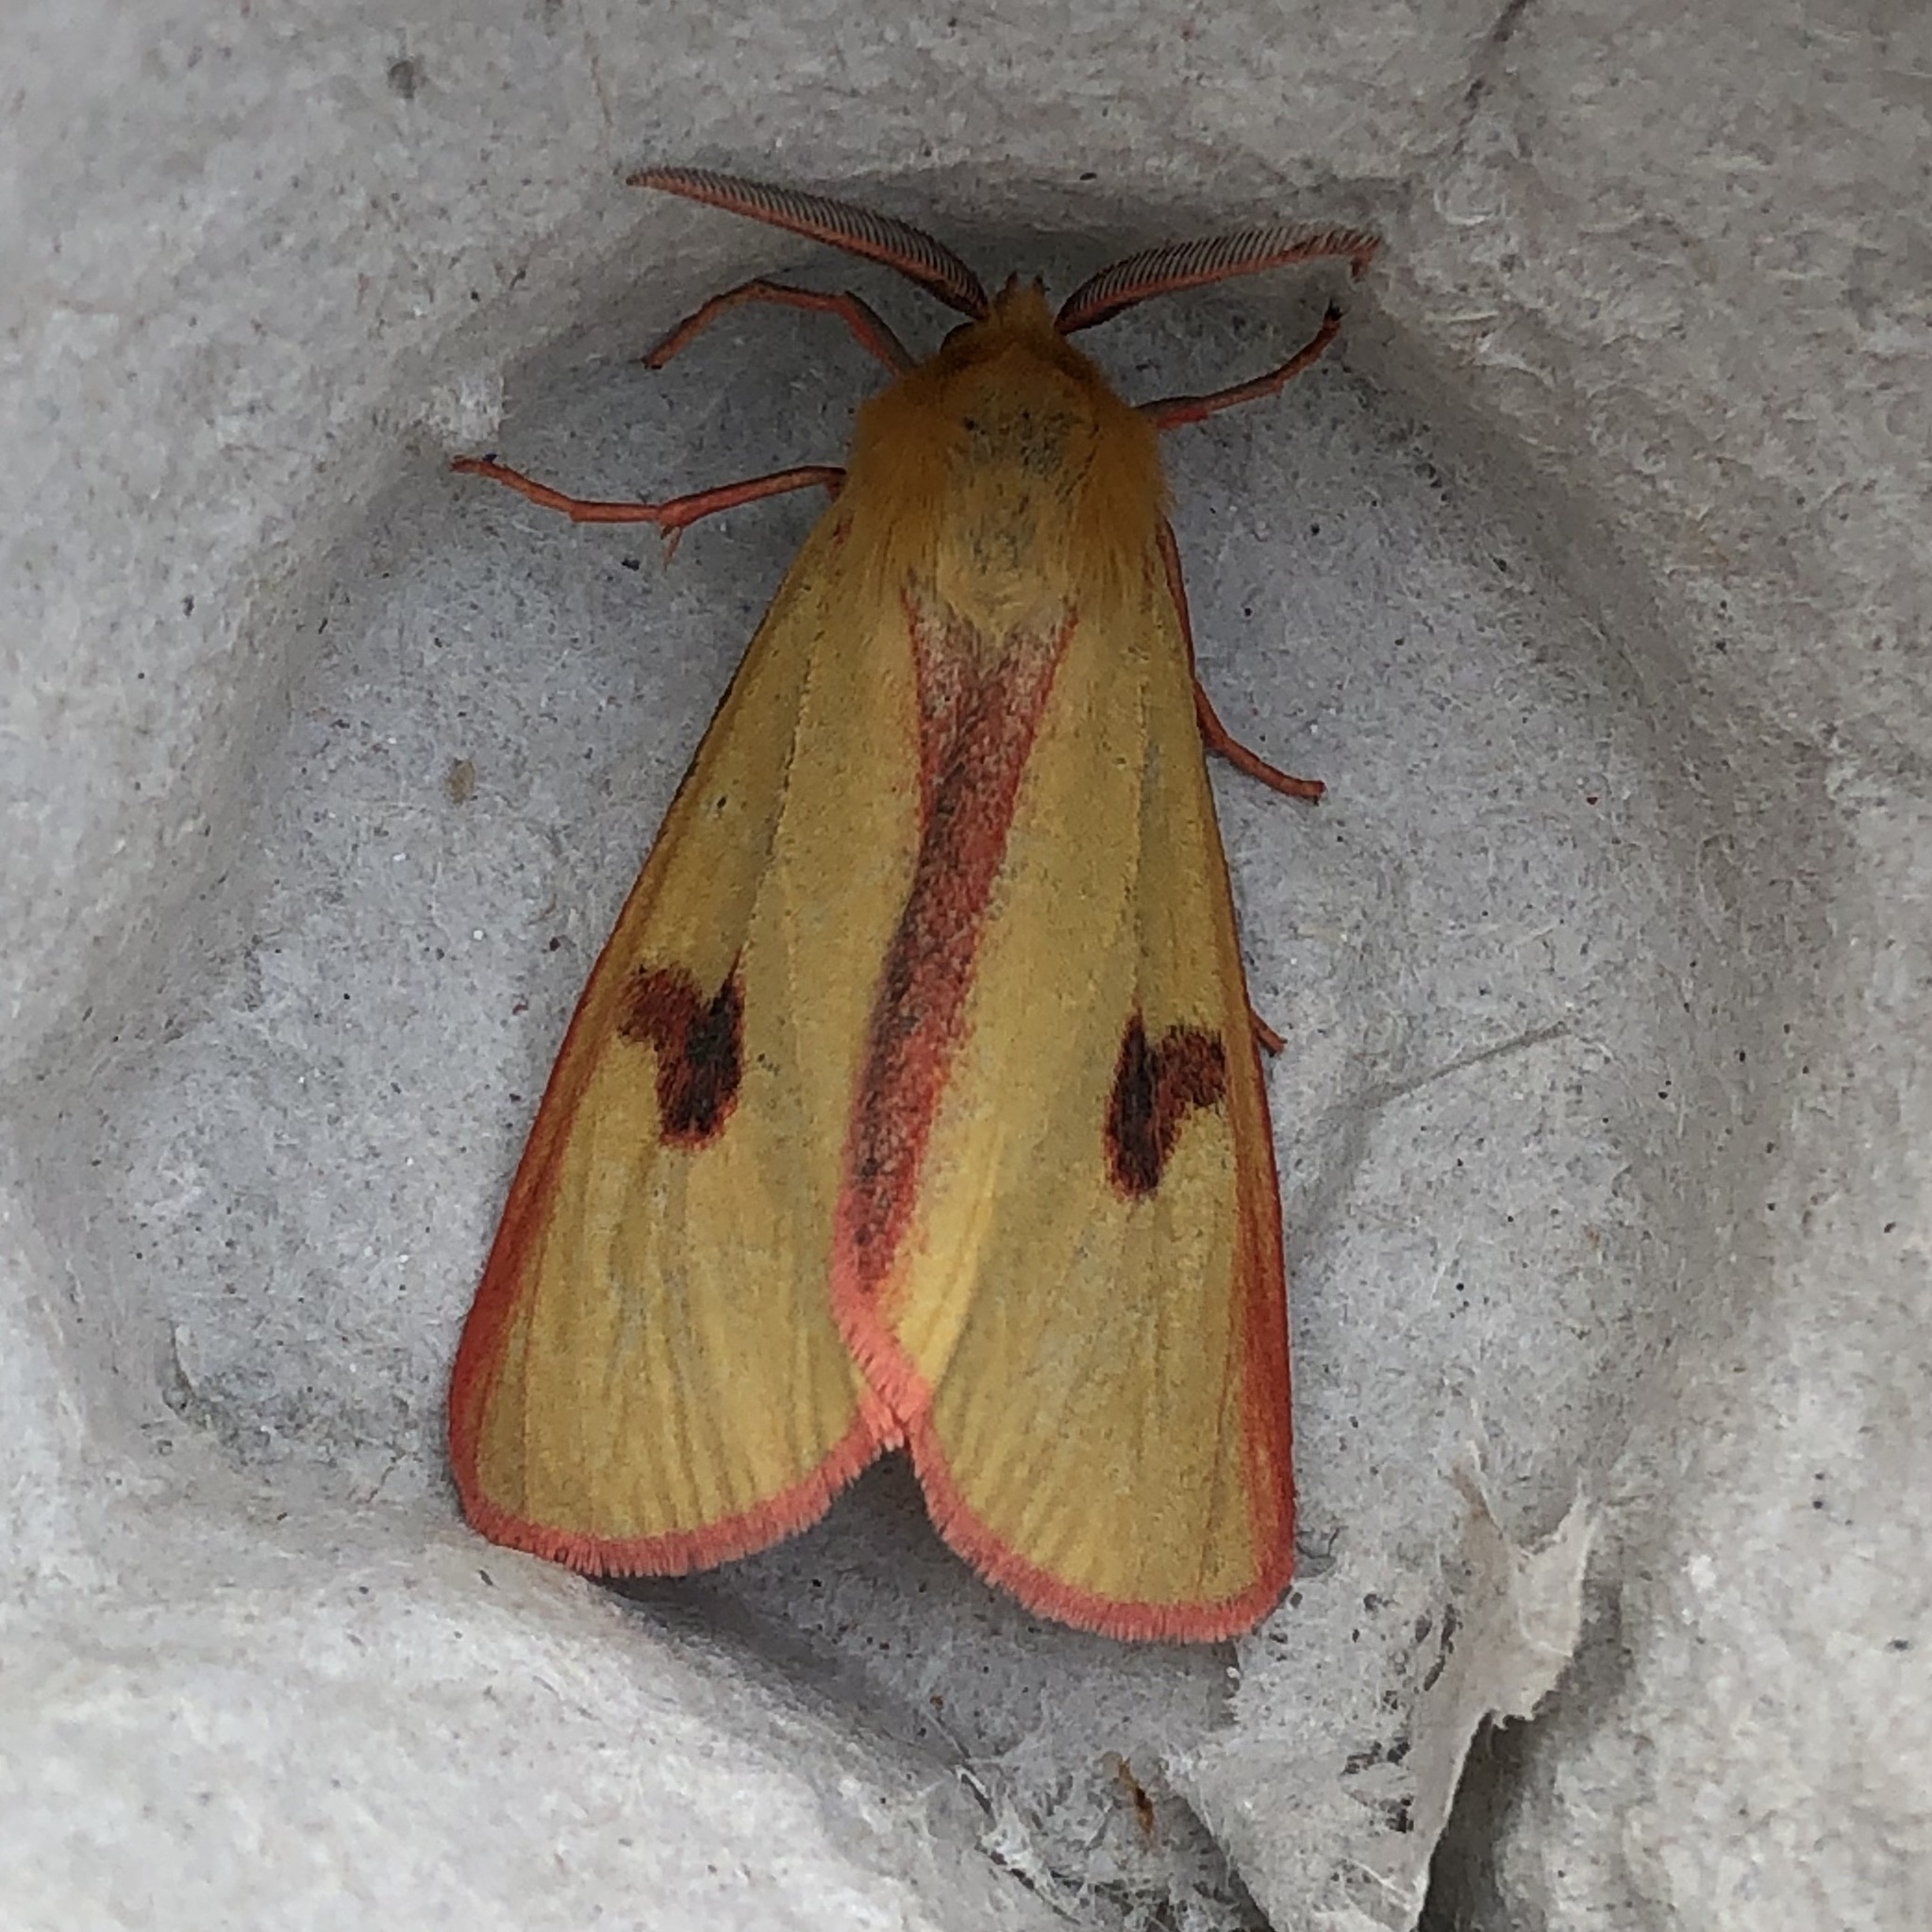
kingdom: Animalia
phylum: Arthropoda
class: Insecta
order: Lepidoptera
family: Erebidae
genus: Diacrisia
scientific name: Diacrisia sannio
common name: Clouded buff
